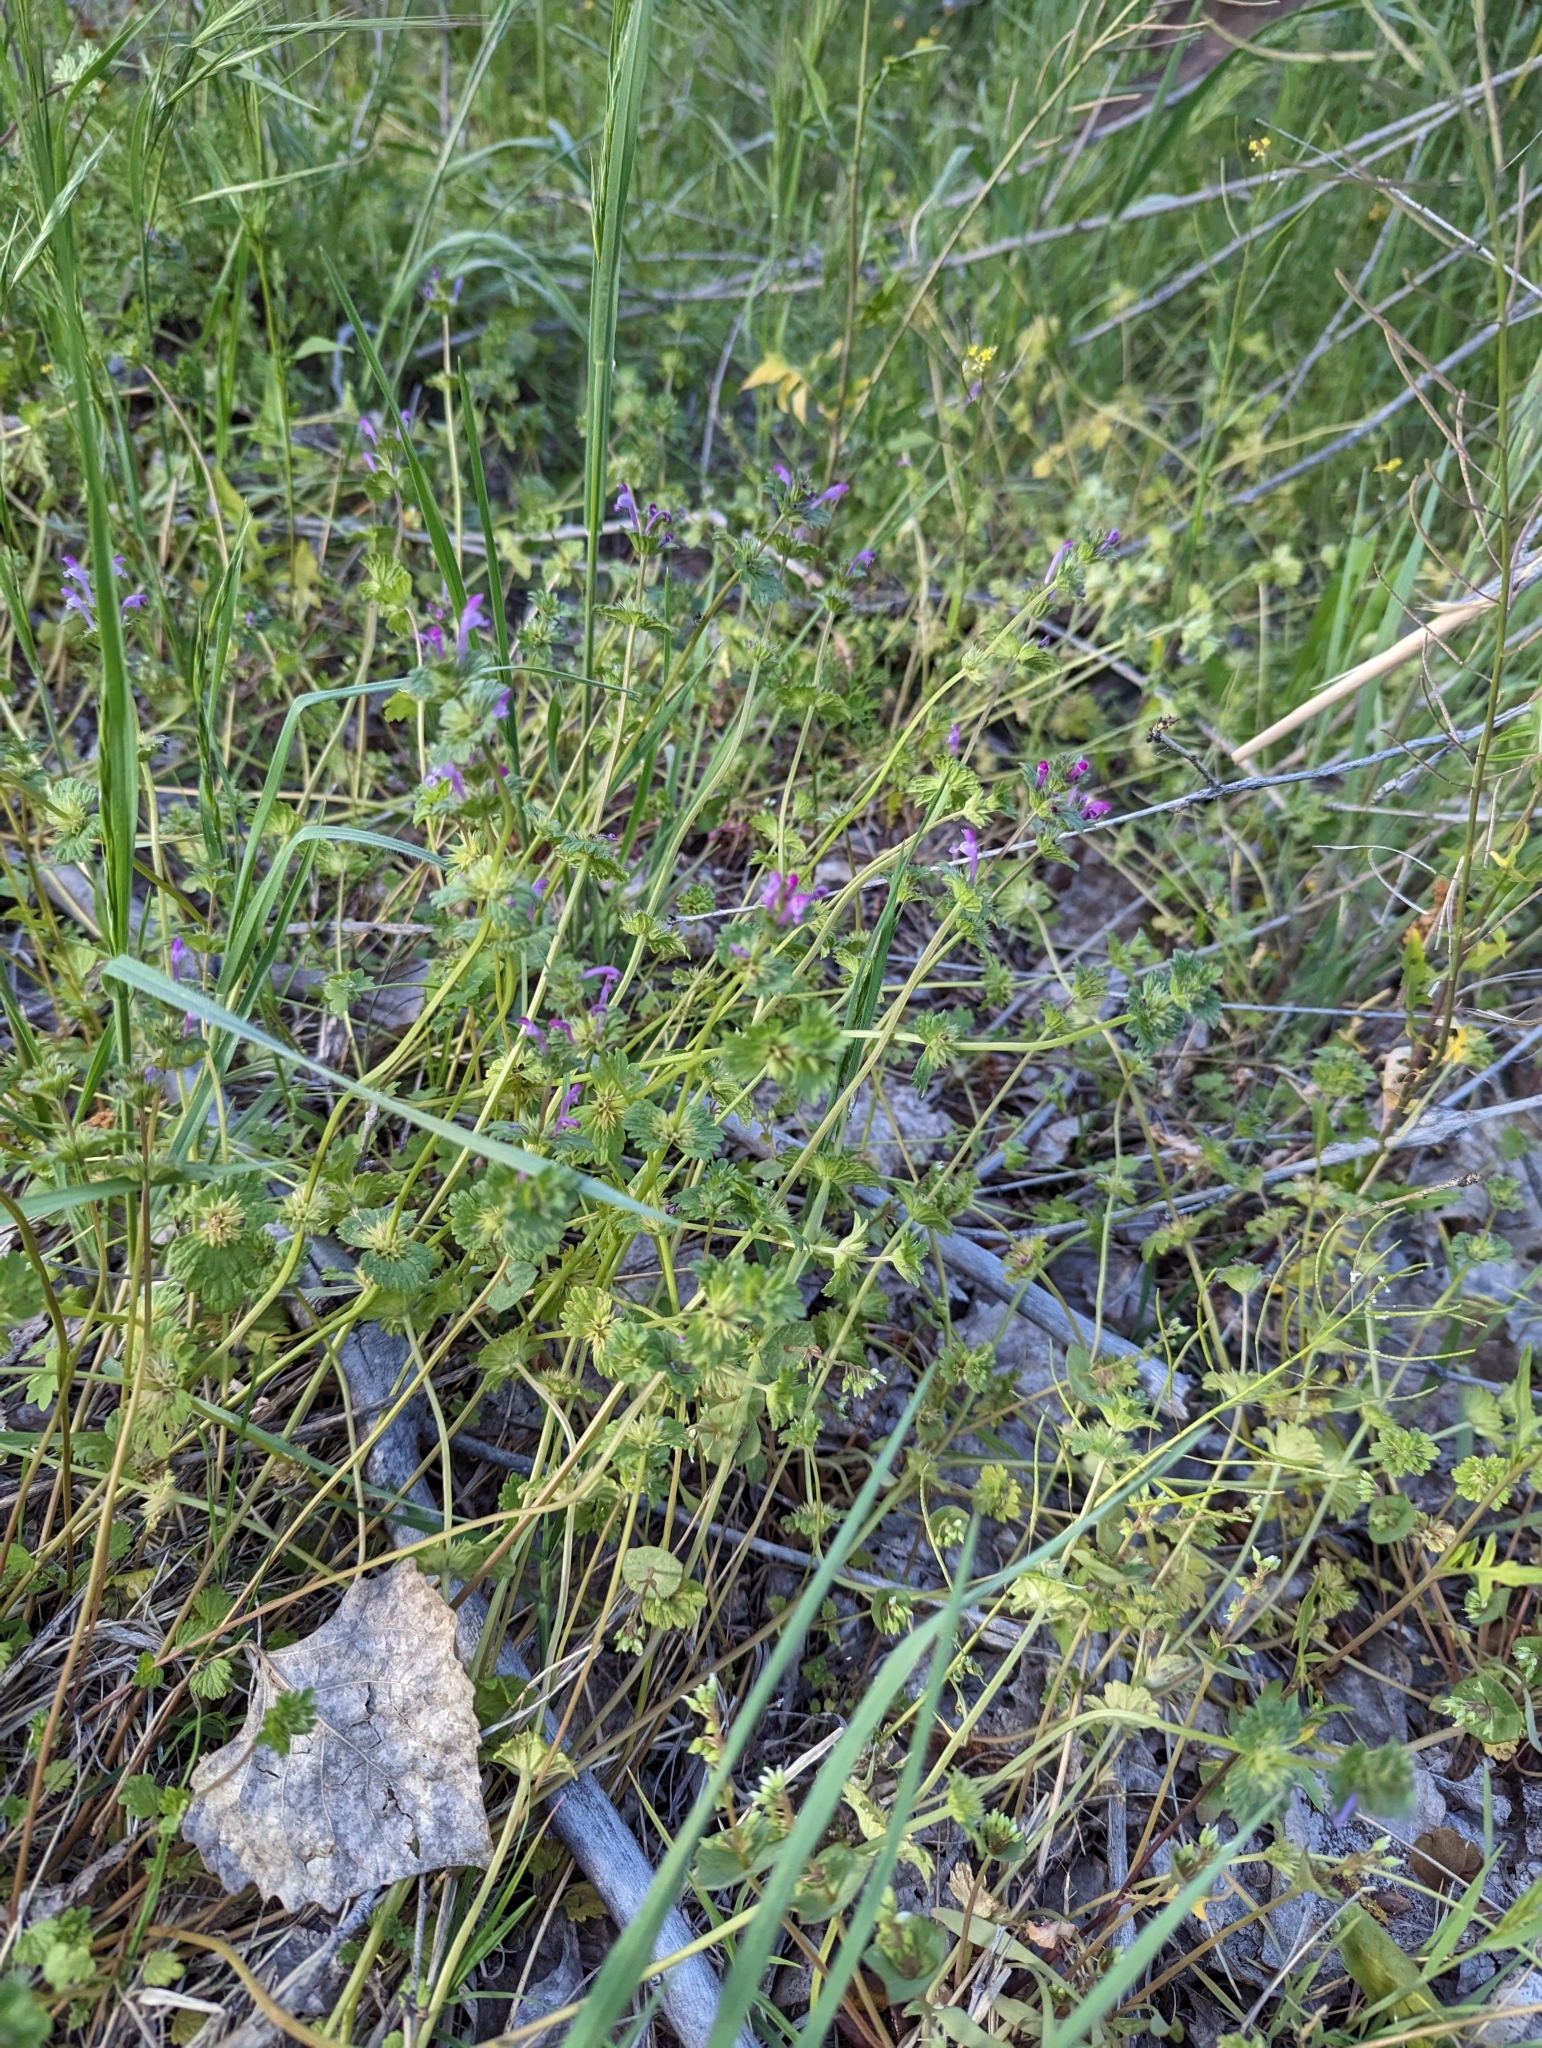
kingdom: Plantae
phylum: Tracheophyta
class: Magnoliopsida
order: Lamiales
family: Lamiaceae
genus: Lamium
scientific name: Lamium amplexicaule
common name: Henbit dead-nettle
